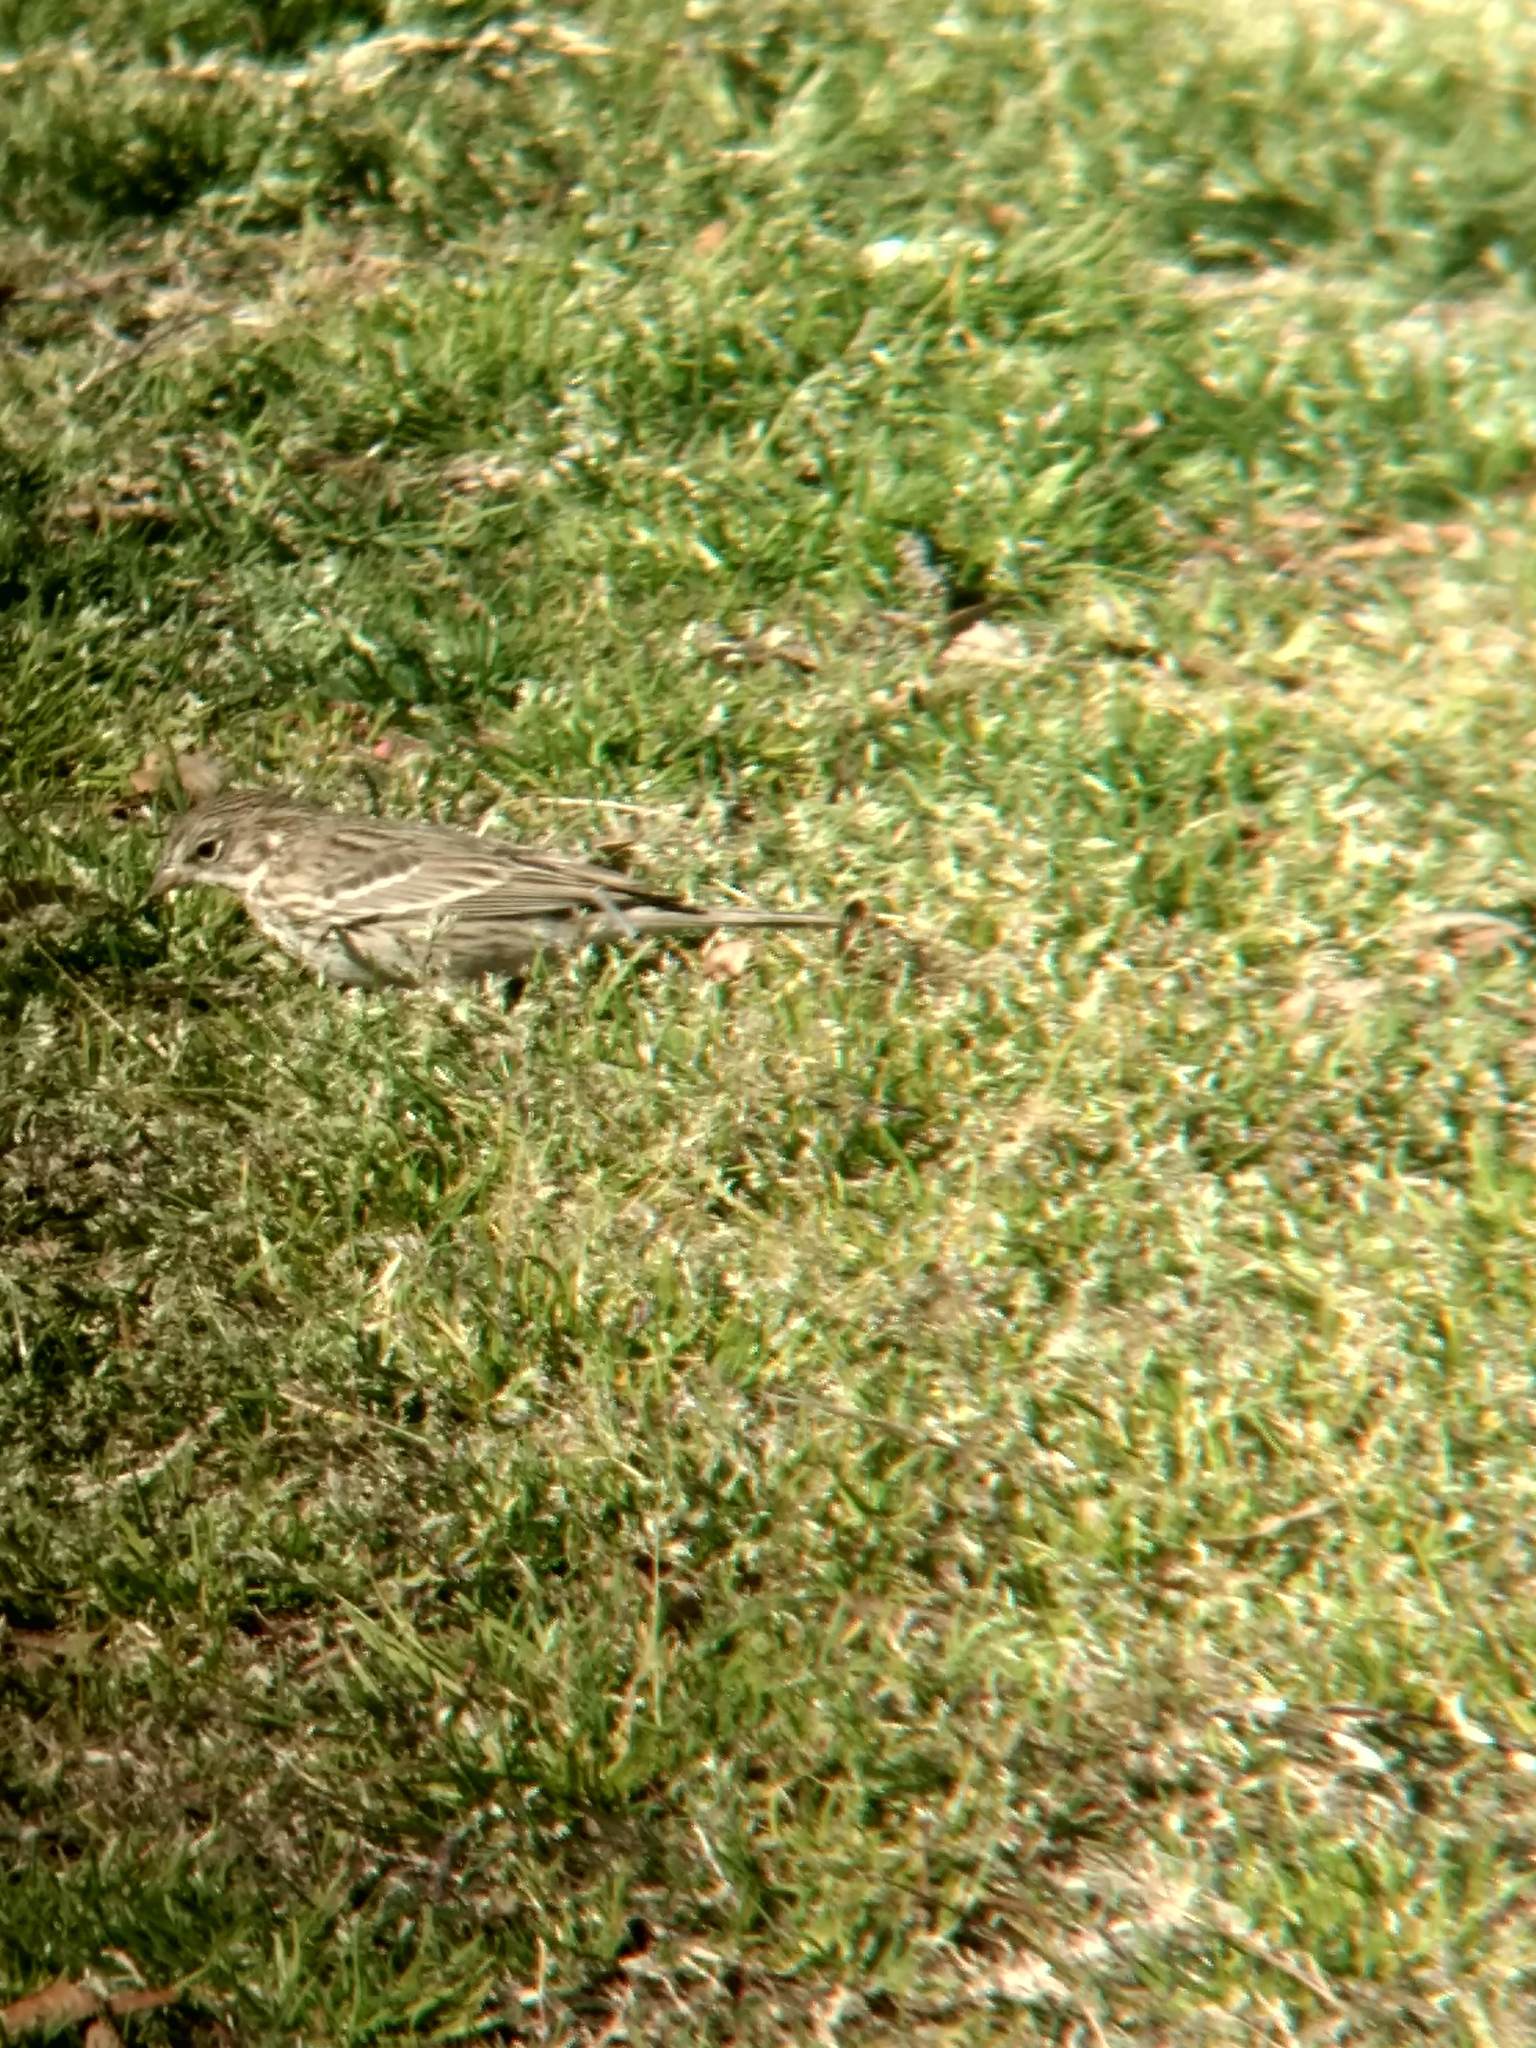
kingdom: Animalia
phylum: Chordata
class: Aves
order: Passeriformes
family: Passerellidae
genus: Pooecetes
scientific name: Pooecetes gramineus
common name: Vesper sparrow
